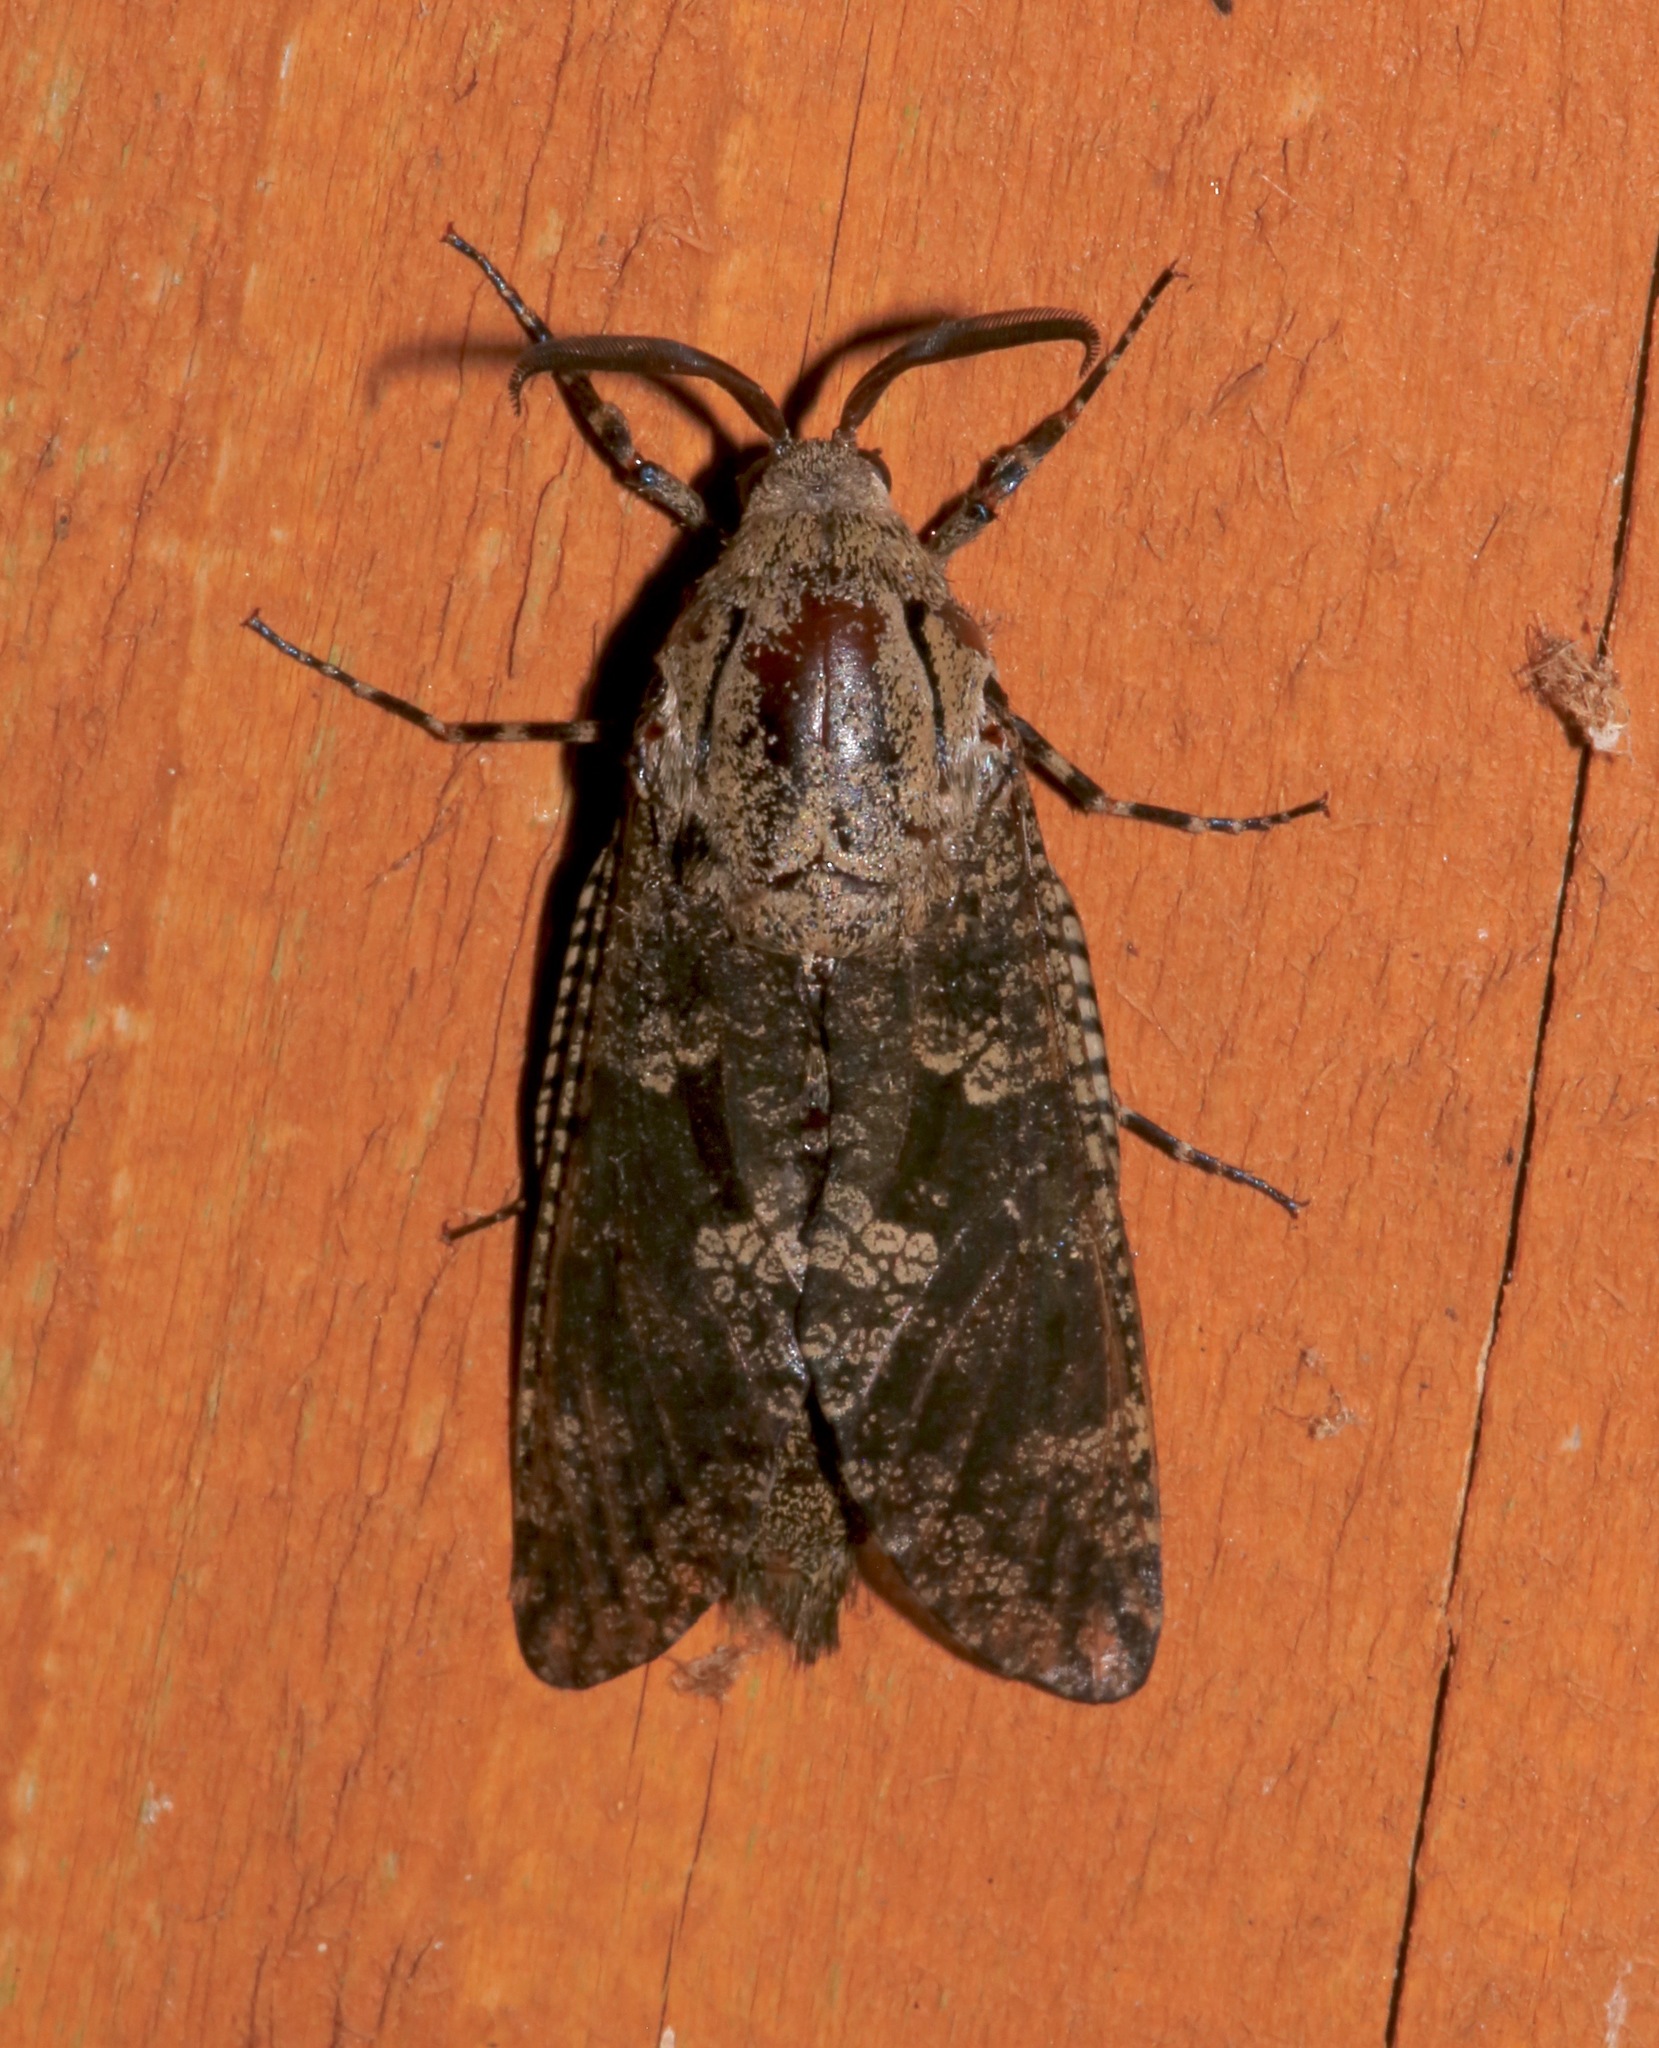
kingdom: Animalia
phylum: Arthropoda
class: Insecta
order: Lepidoptera
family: Cossidae
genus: Prionoxystus
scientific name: Prionoxystus robiniae
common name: Carpenterworm
